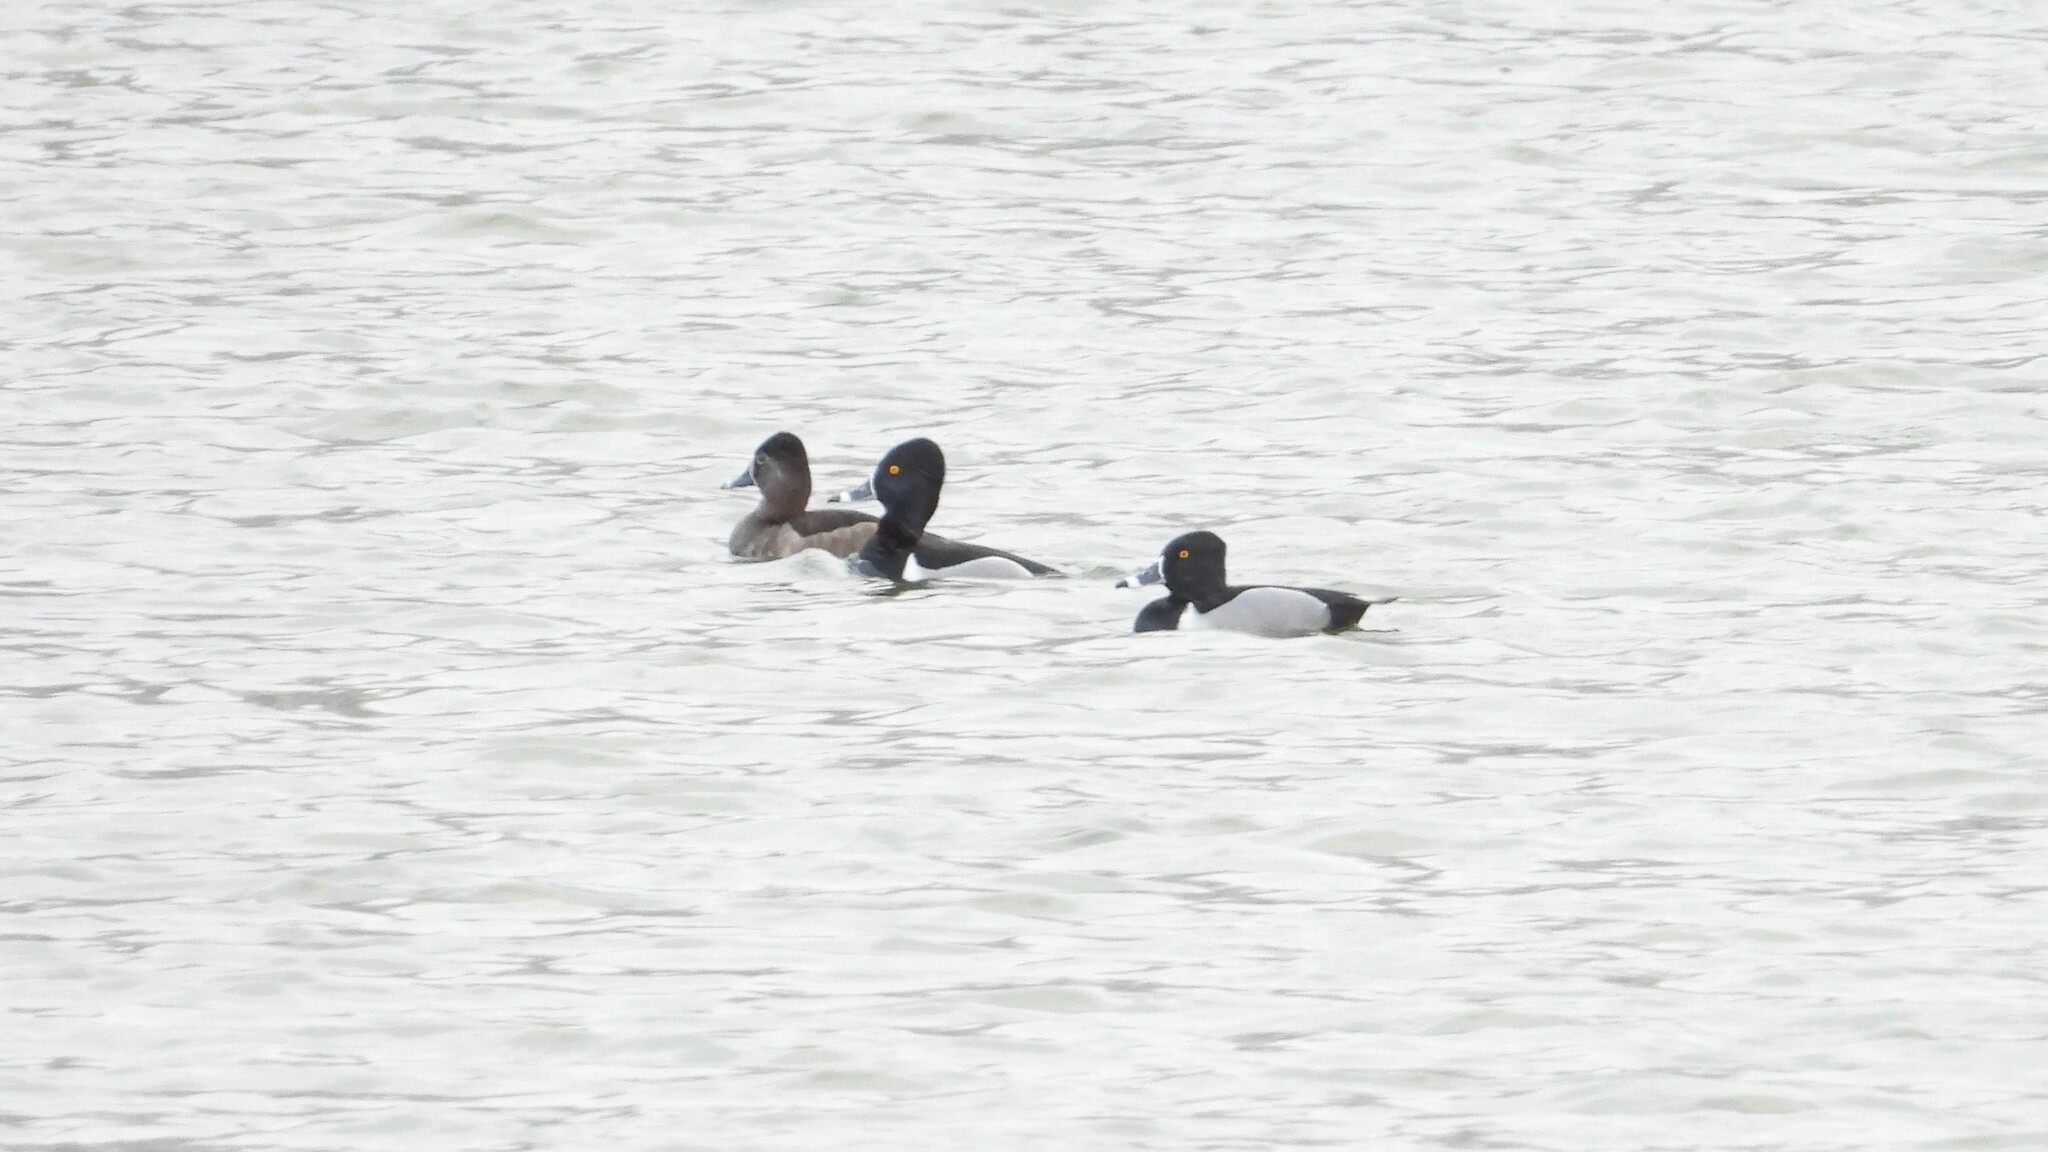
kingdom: Animalia
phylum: Chordata
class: Aves
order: Anseriformes
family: Anatidae
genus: Aythya
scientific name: Aythya collaris
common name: Ring-necked duck
